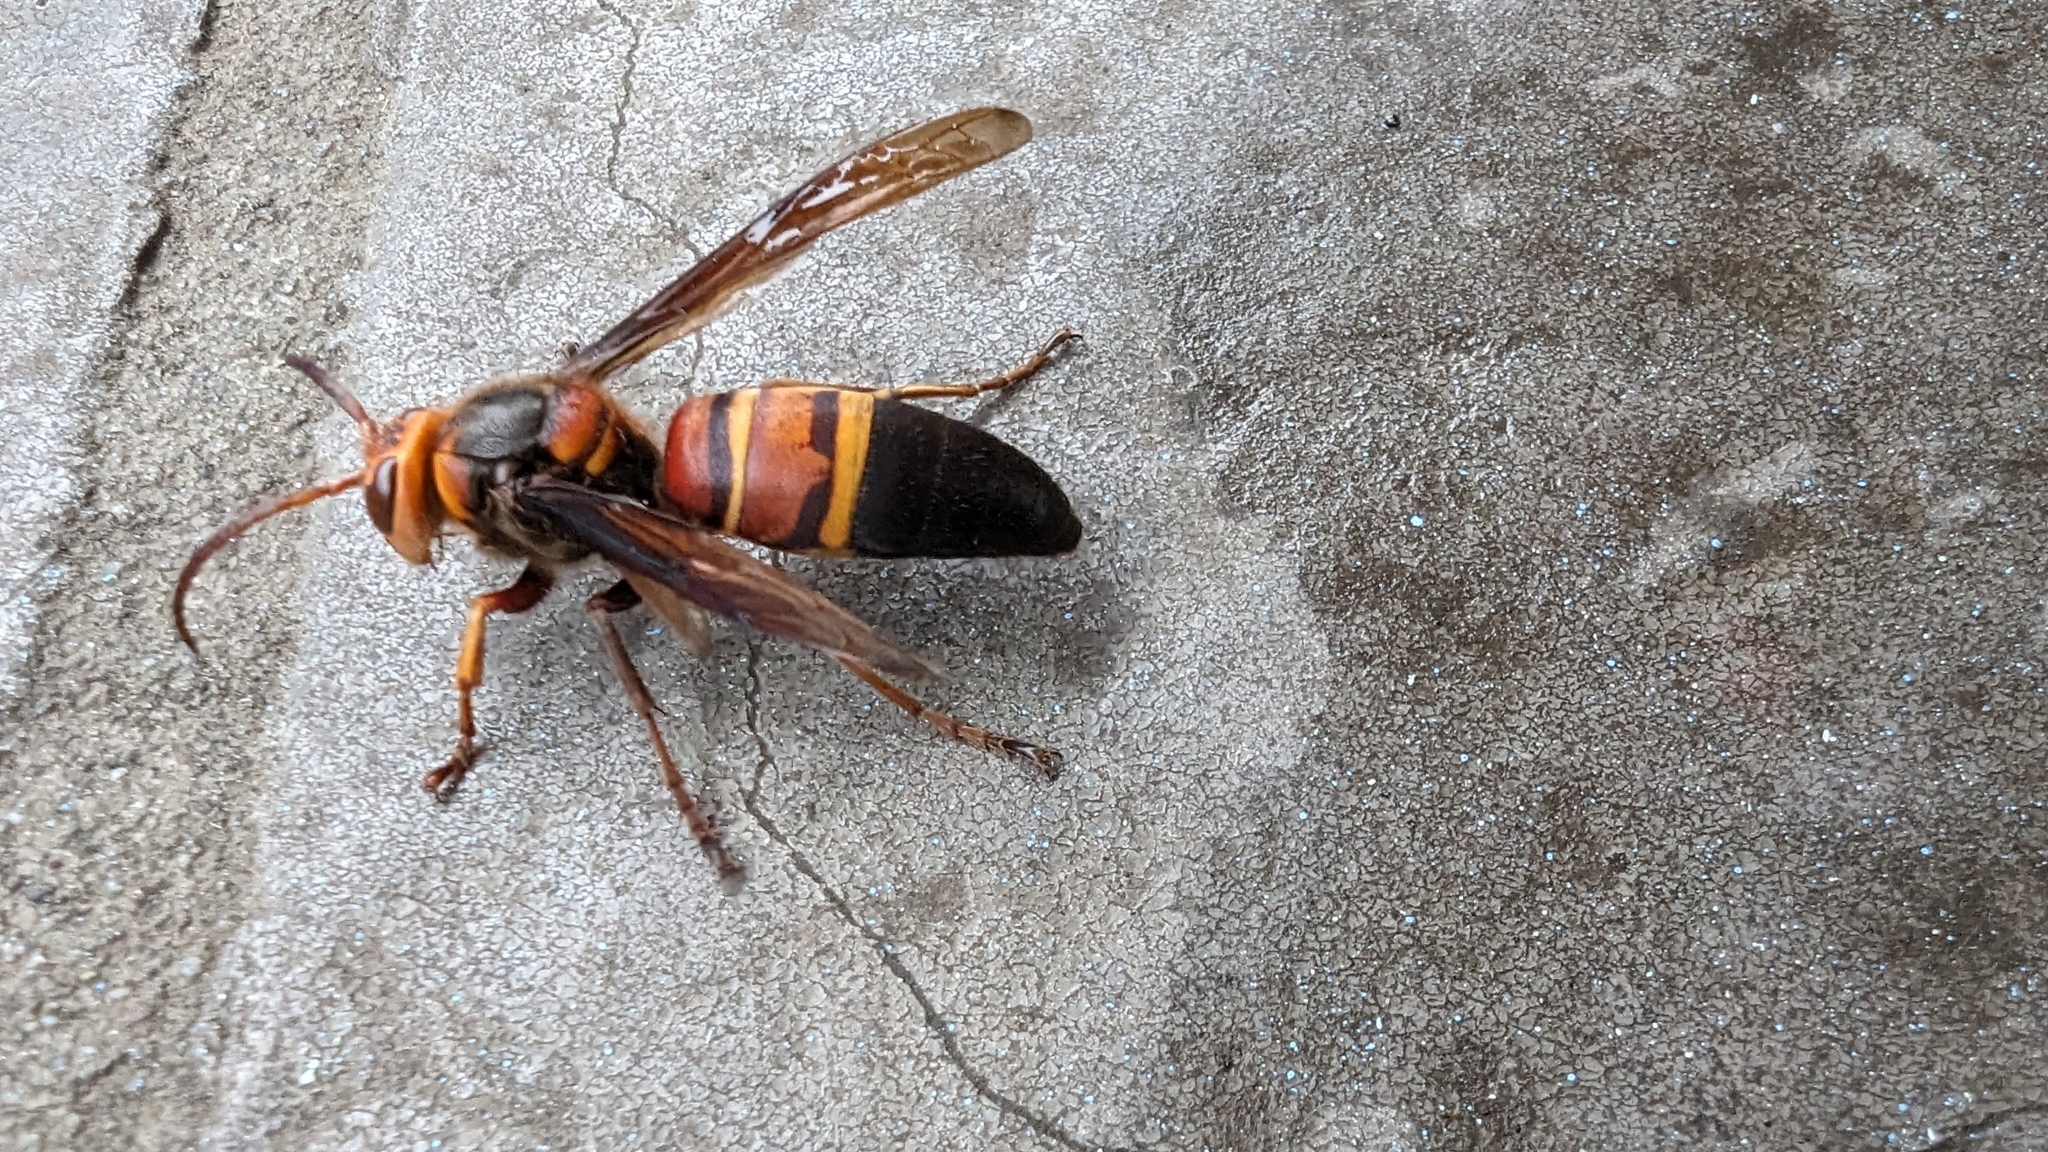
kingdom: Animalia
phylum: Arthropoda
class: Insecta
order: Hymenoptera
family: Vespidae
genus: Vespa
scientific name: Vespa ducalis
